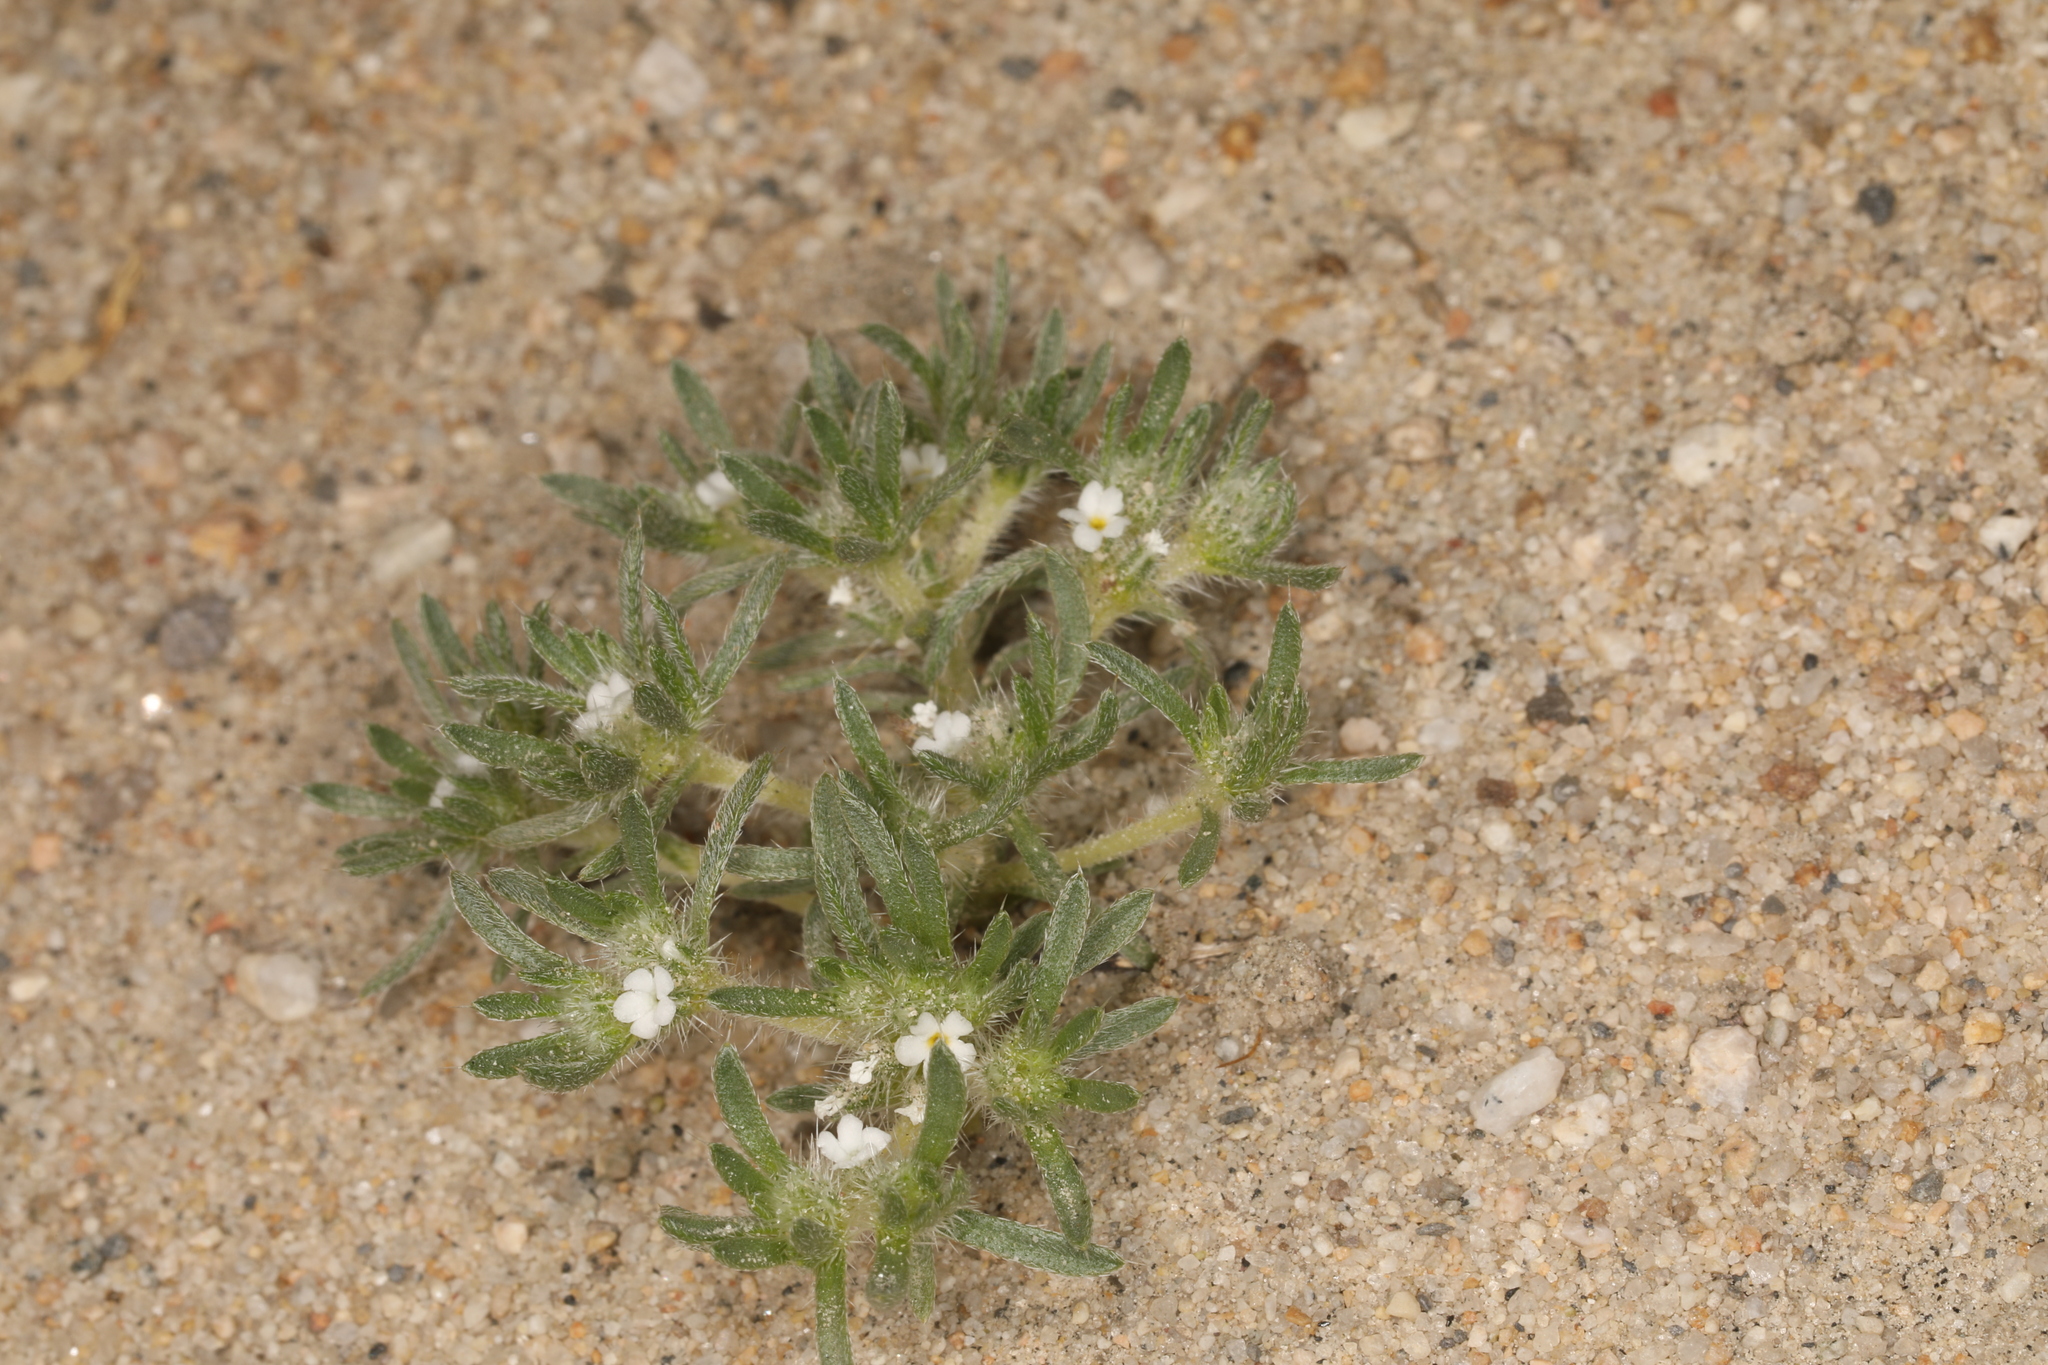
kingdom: Plantae
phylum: Tracheophyta
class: Magnoliopsida
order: Boraginales
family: Boraginaceae
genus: Greeneocharis
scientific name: Greeneocharis circumscissa
